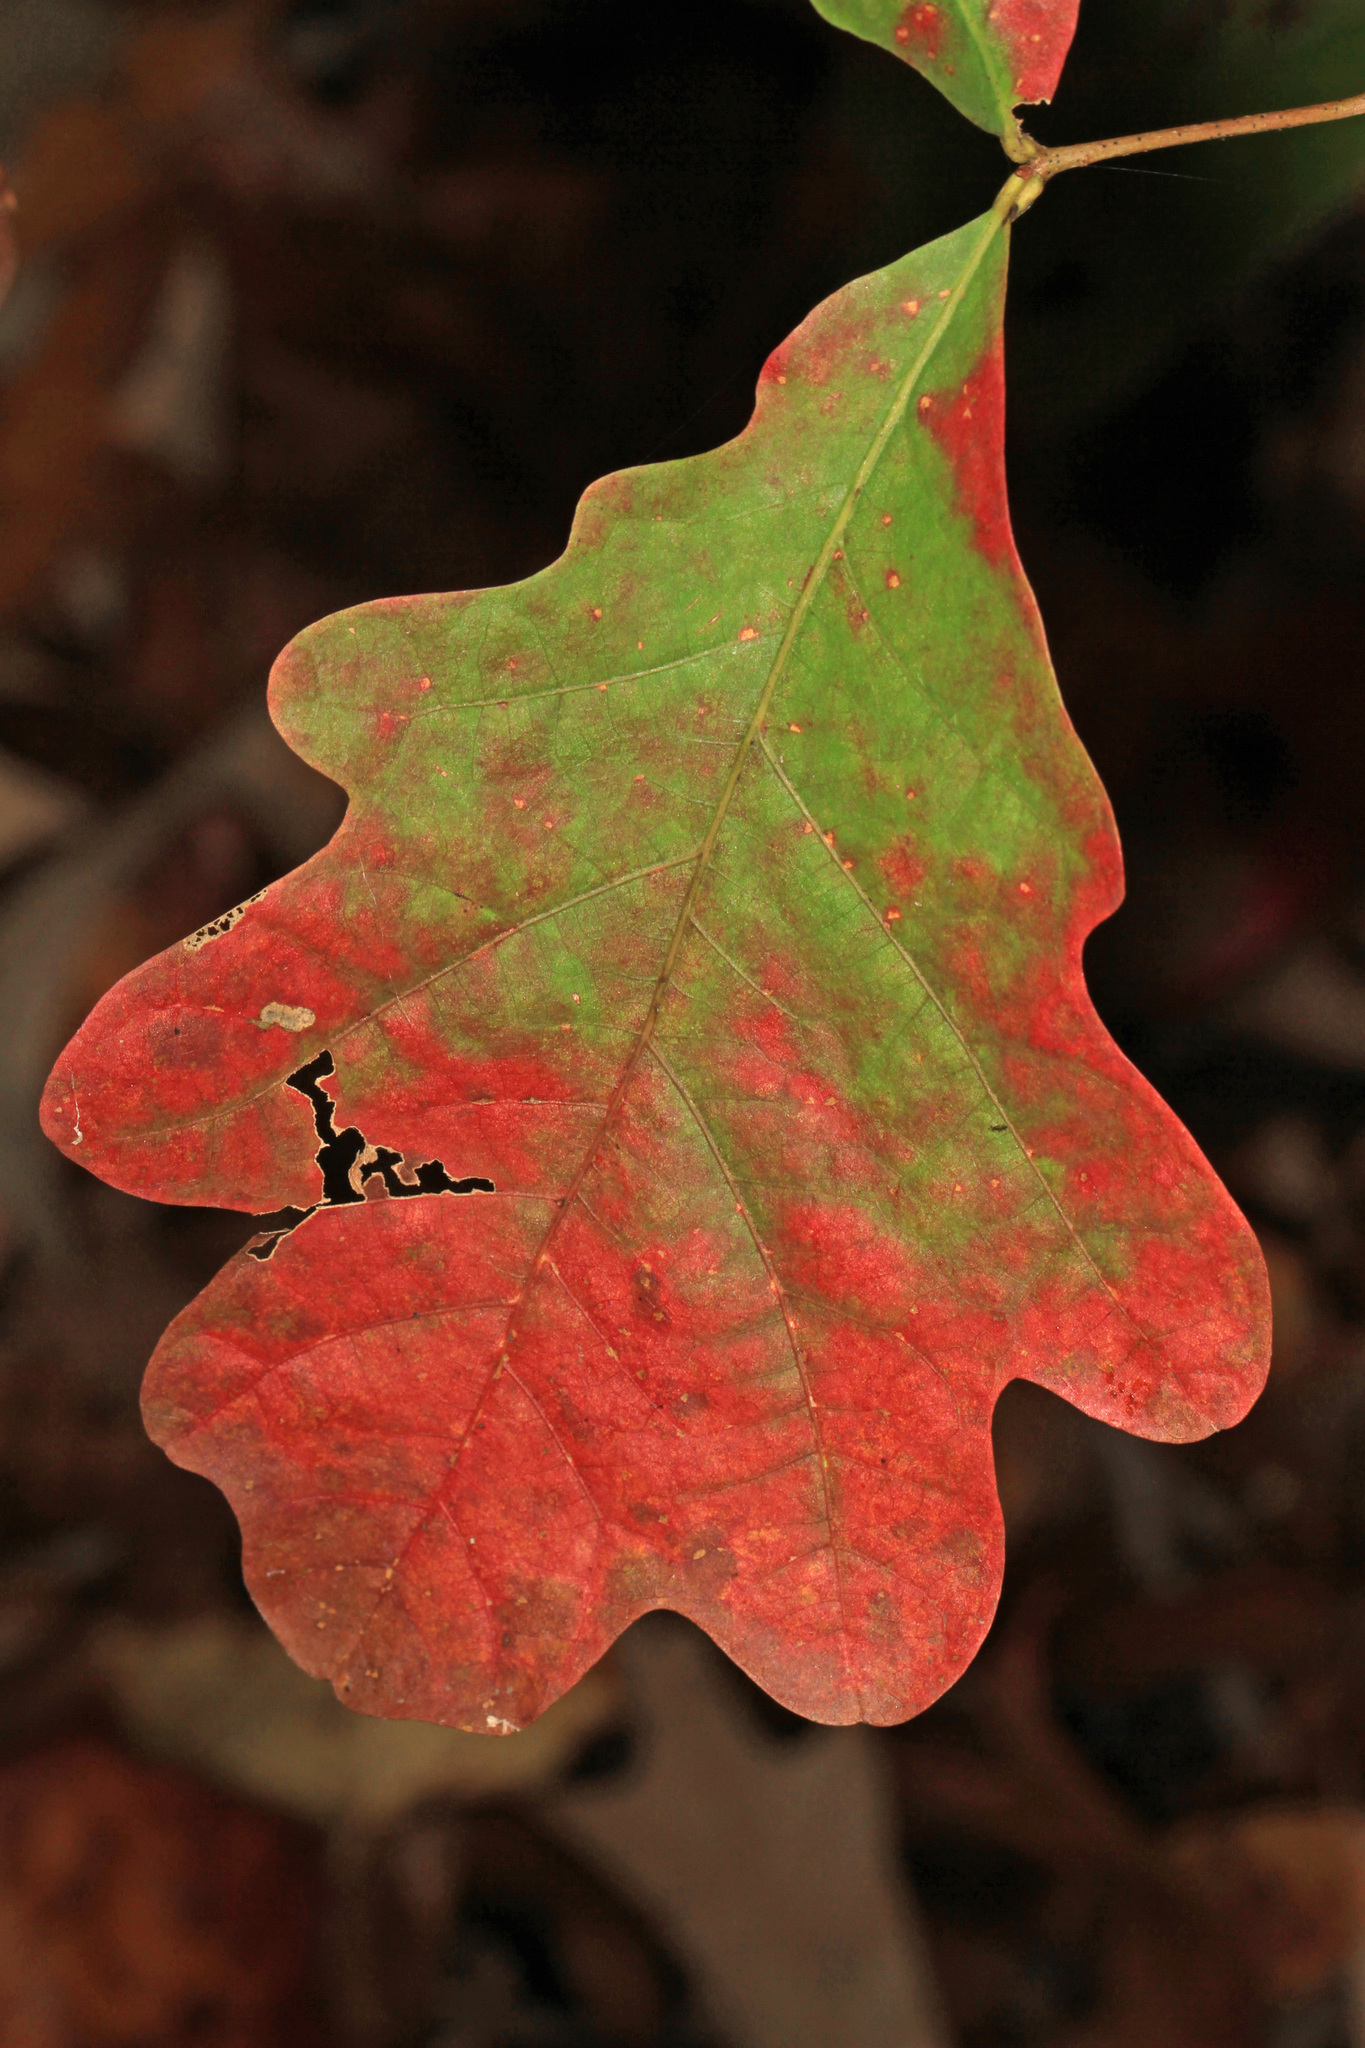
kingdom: Plantae
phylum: Tracheophyta
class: Magnoliopsida
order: Fagales
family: Fagaceae
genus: Quercus
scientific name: Quercus alba
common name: White oak
